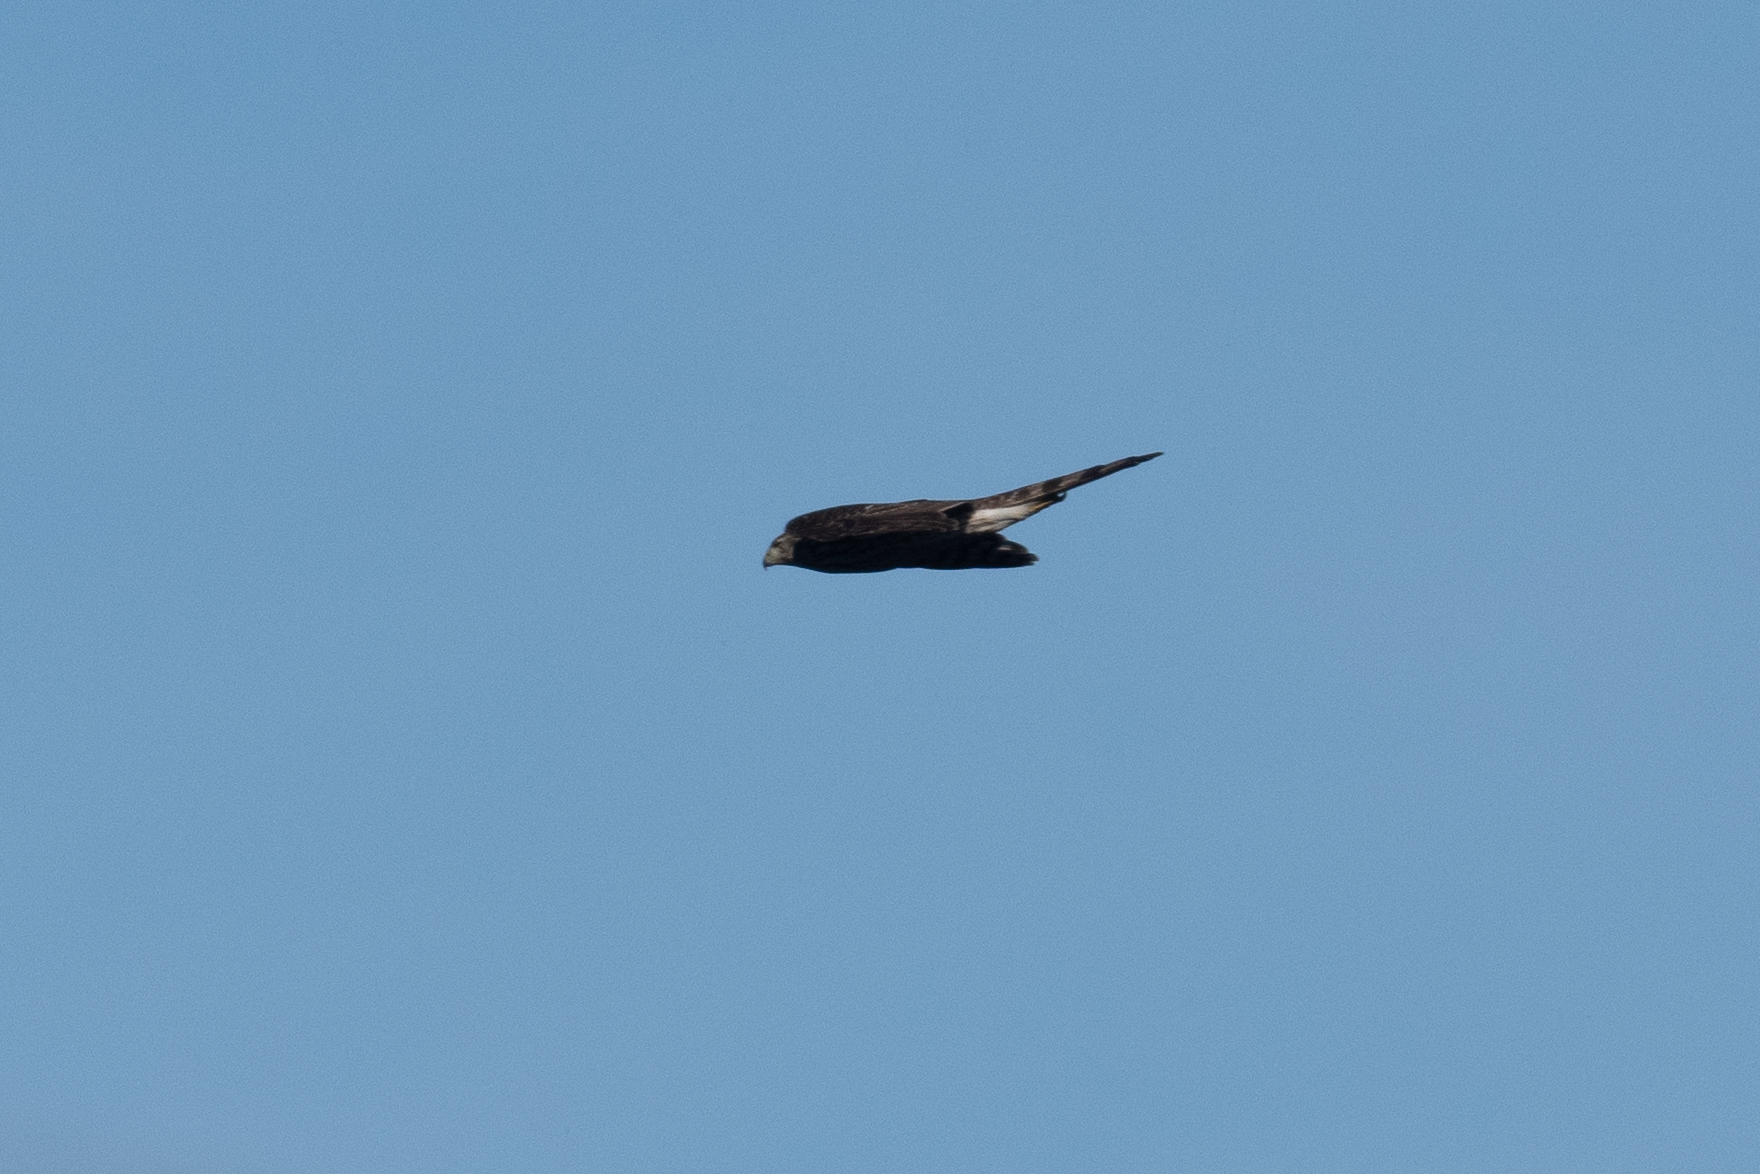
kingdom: Animalia
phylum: Chordata
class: Aves
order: Accipitriformes
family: Accipitridae
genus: Accipiter
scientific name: Accipiter cooperii
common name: Cooper's hawk
